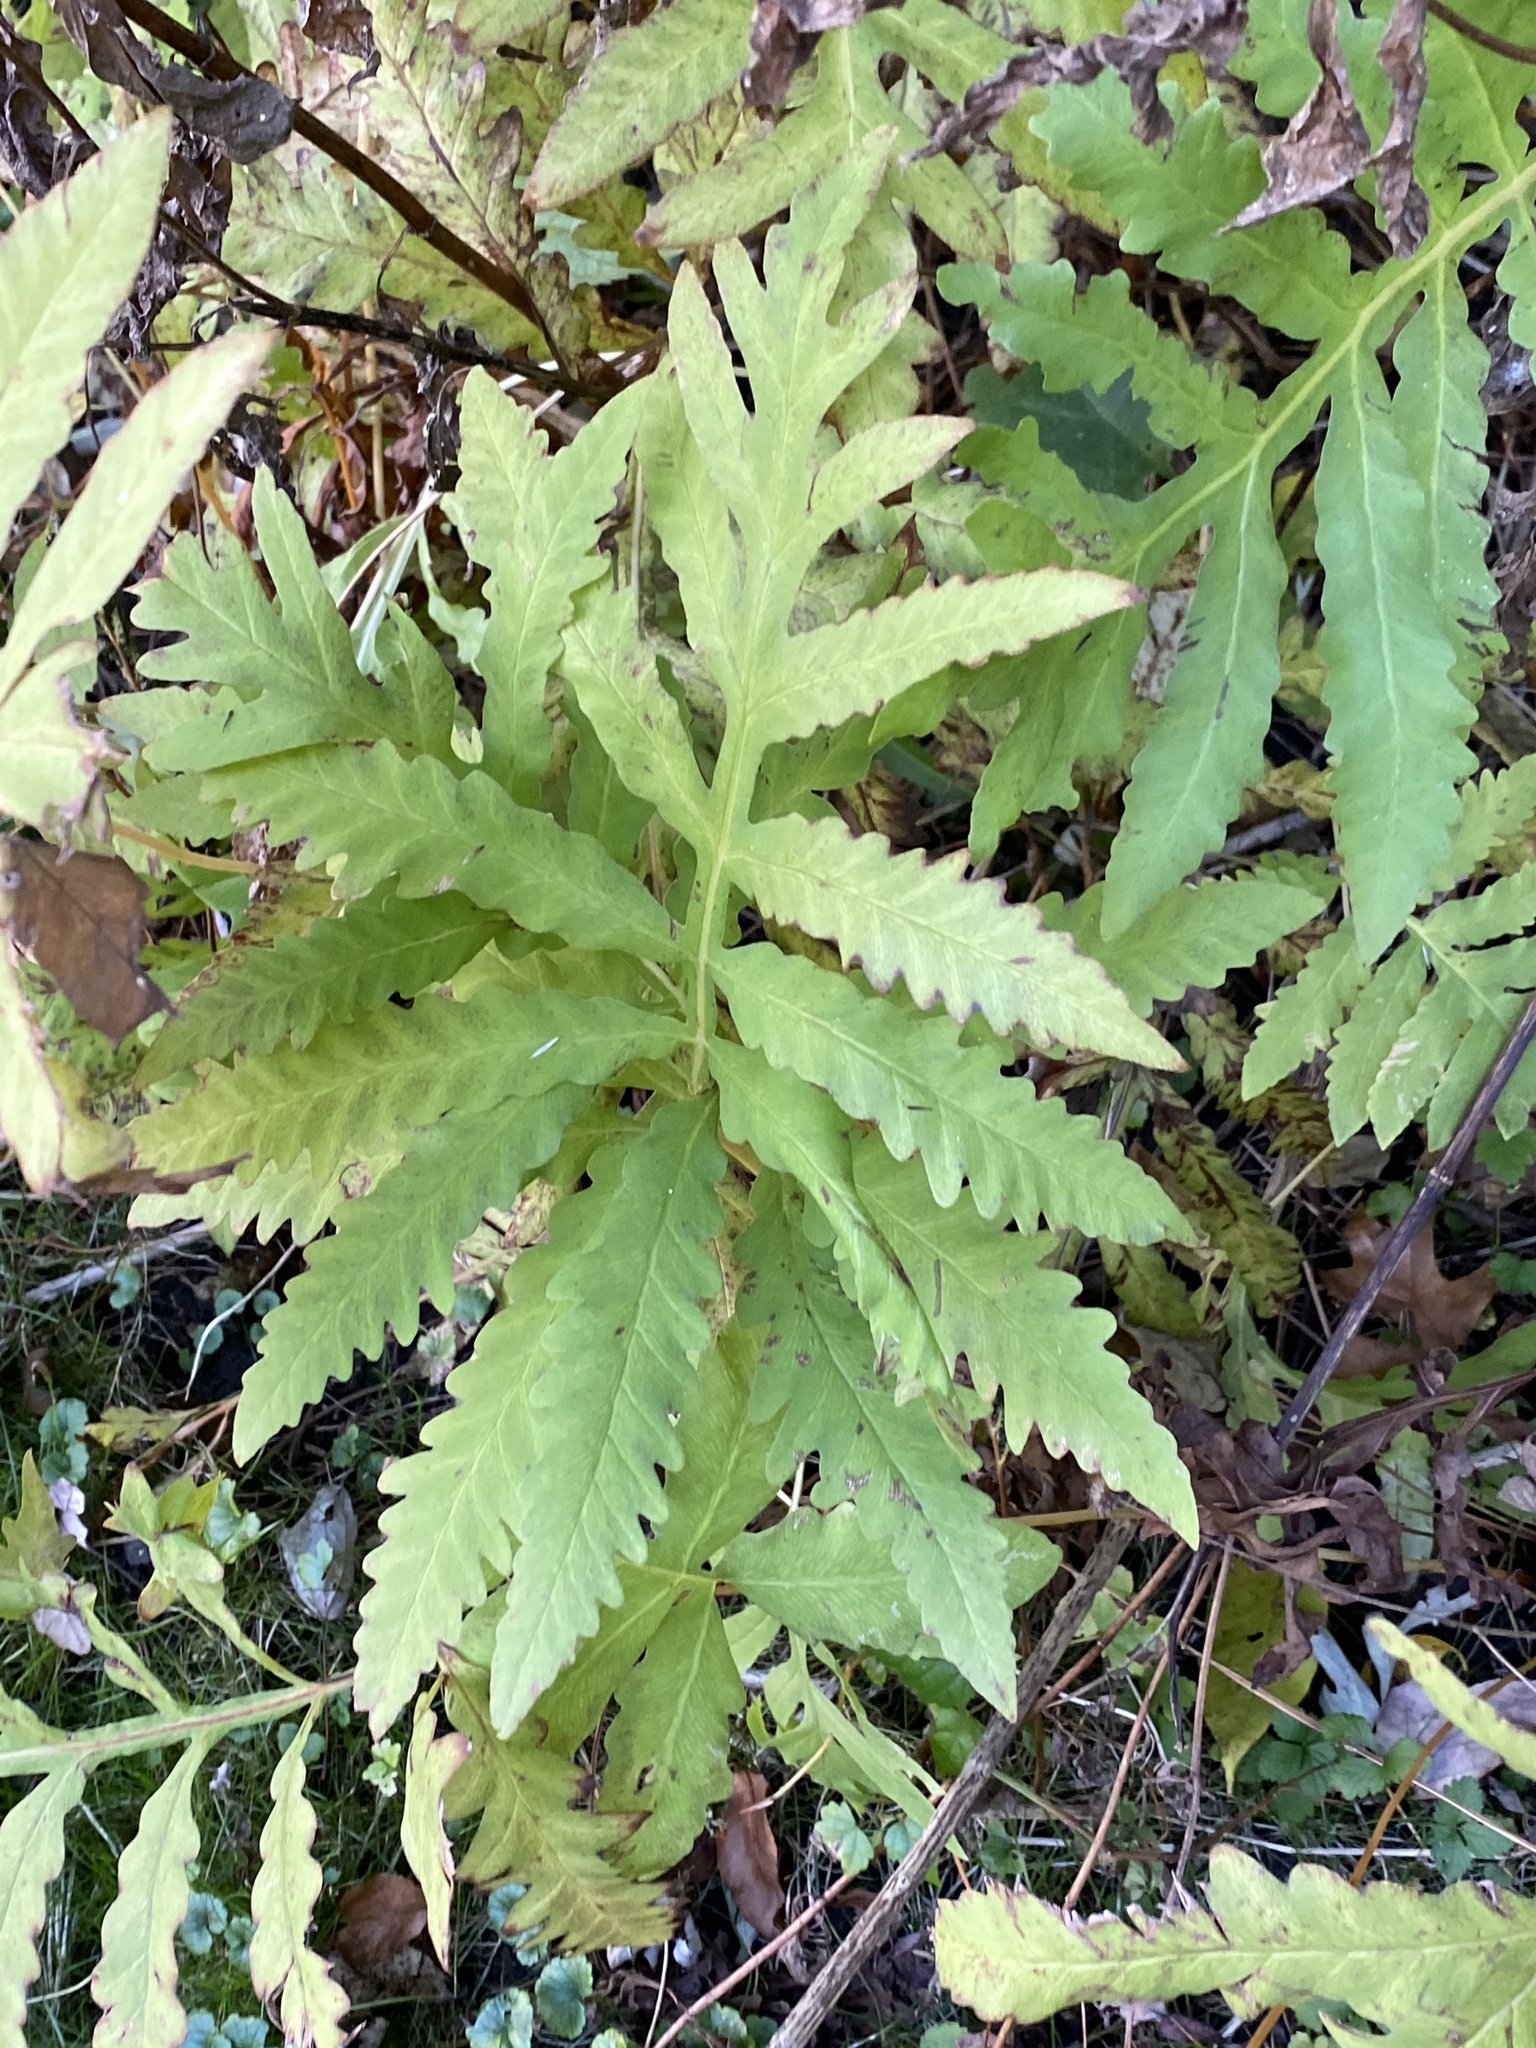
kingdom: Plantae
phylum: Tracheophyta
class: Polypodiopsida
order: Polypodiales
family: Onocleaceae
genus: Onoclea
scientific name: Onoclea sensibilis
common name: Sensitive fern
